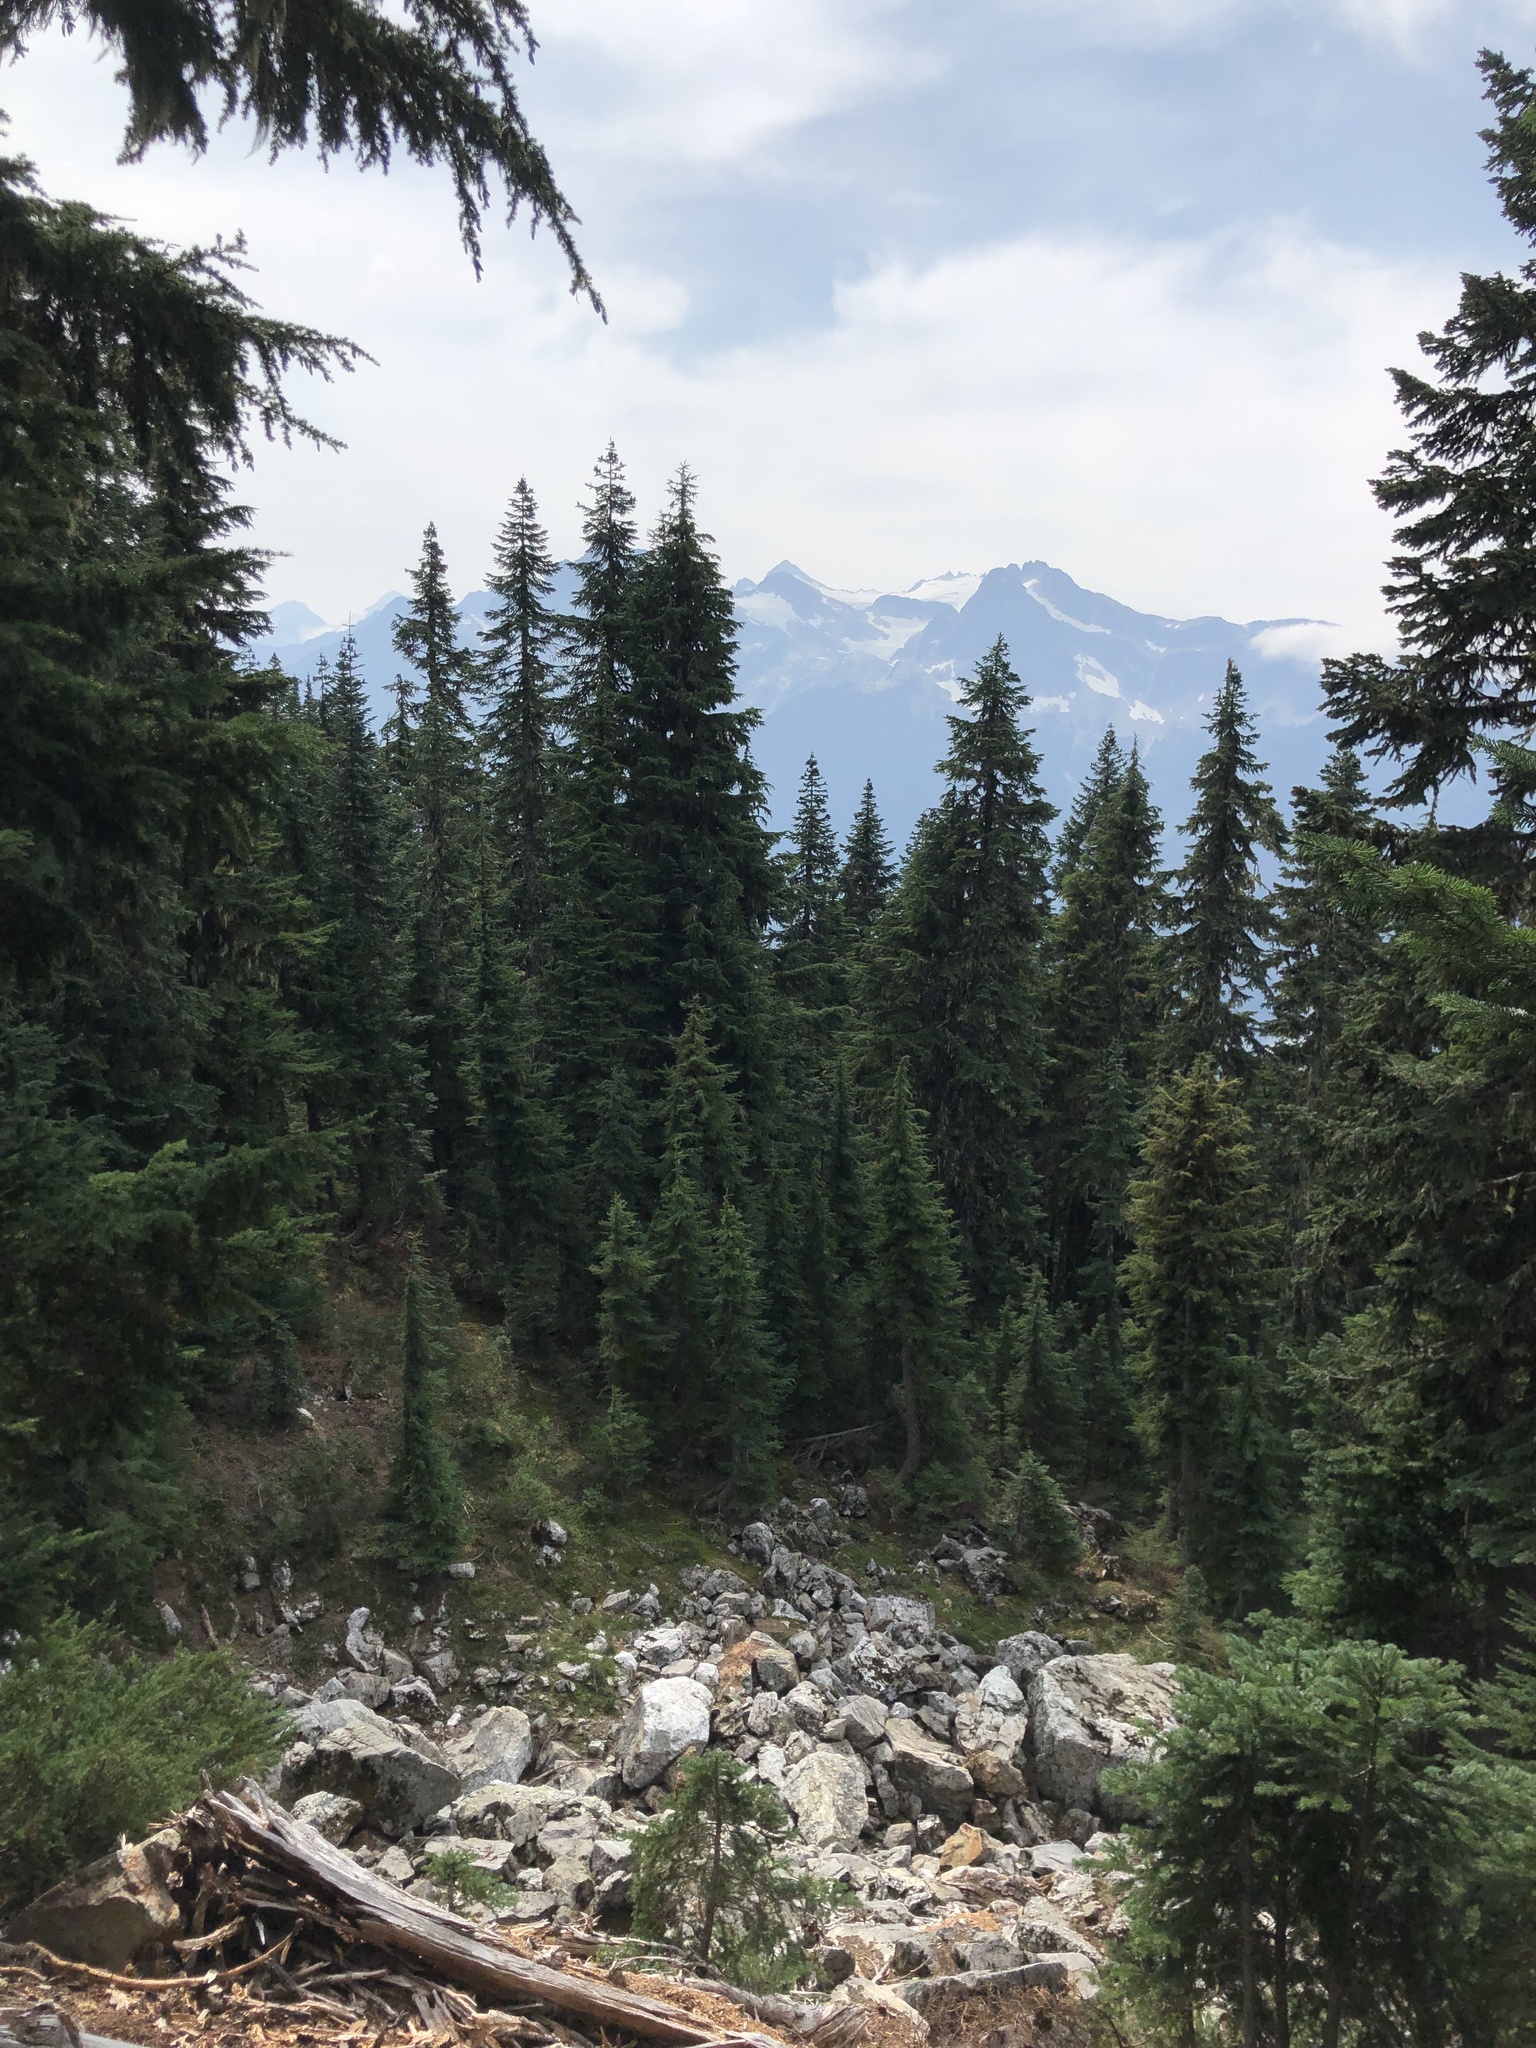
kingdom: Plantae
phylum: Tracheophyta
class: Pinopsida
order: Pinales
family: Pinaceae
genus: Abies
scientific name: Abies amabilis
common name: Pacific silver fir
